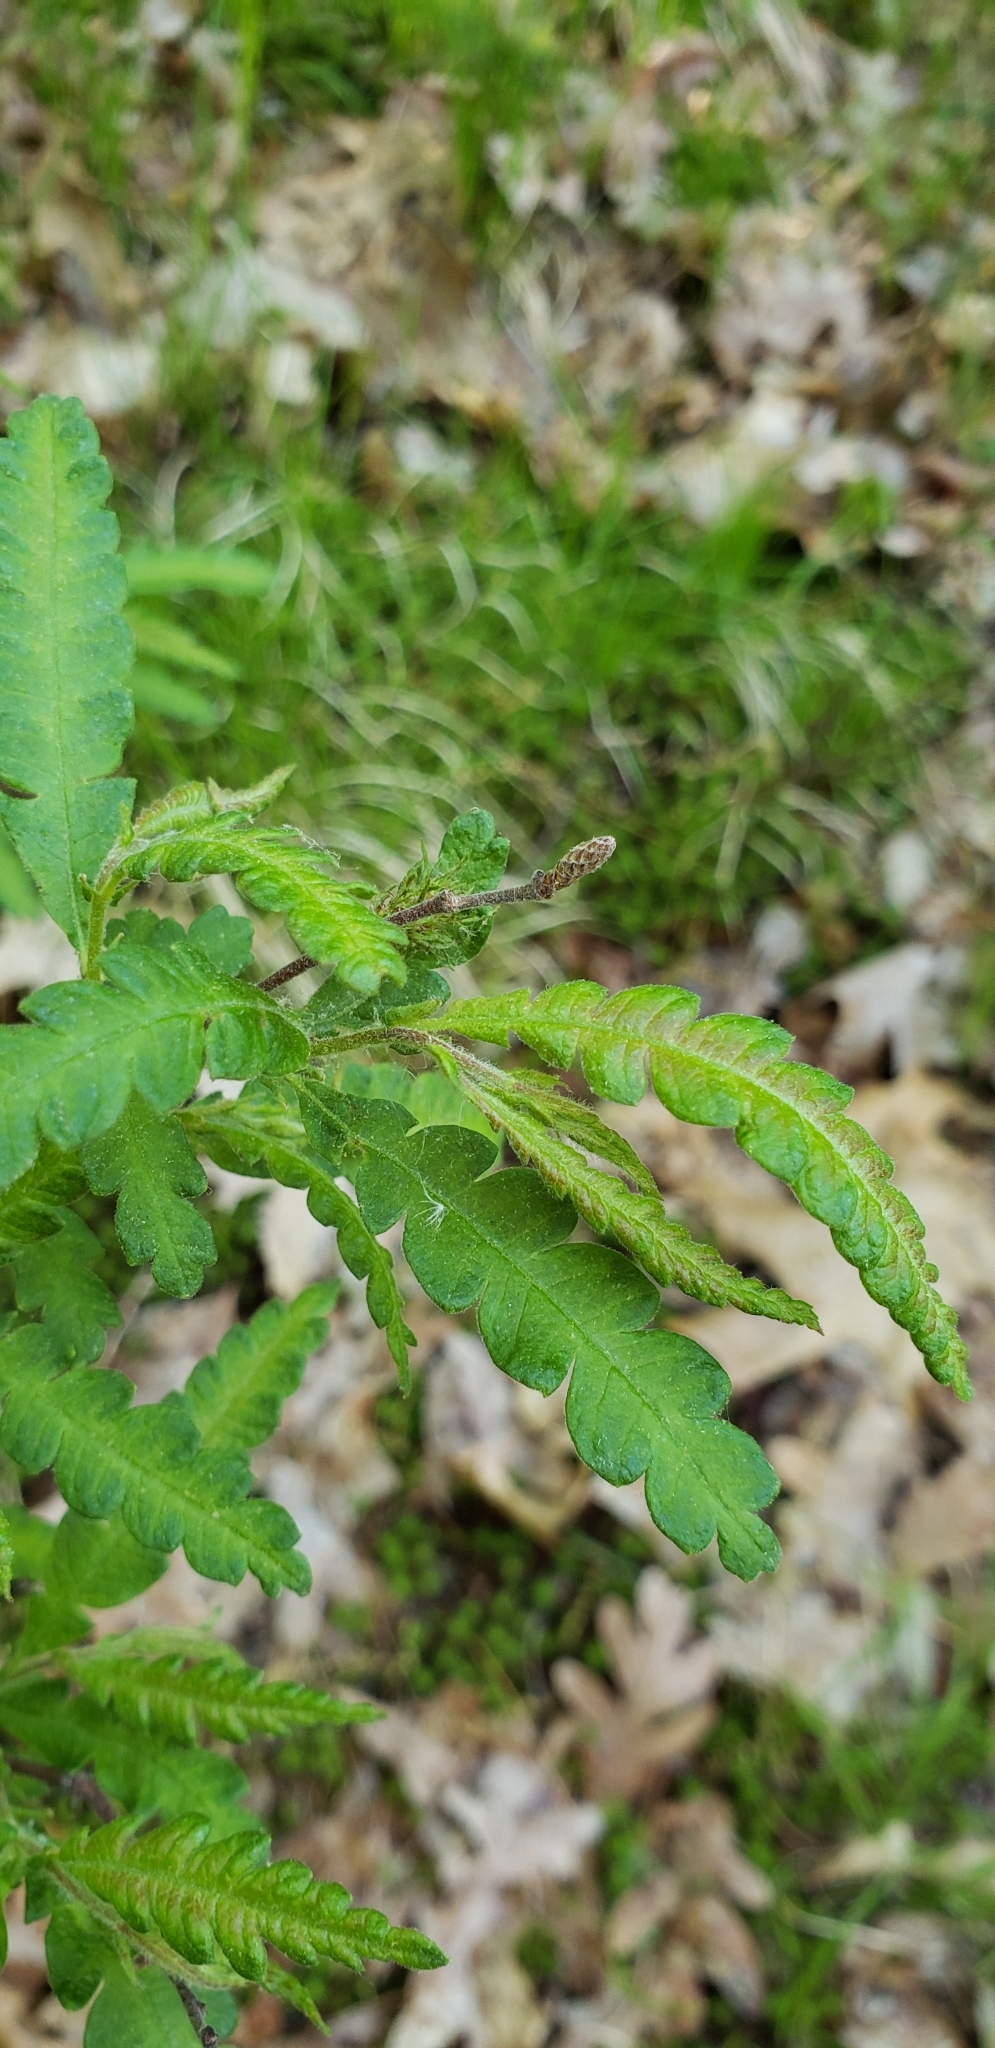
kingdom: Plantae
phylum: Tracheophyta
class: Magnoliopsida
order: Fagales
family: Myricaceae
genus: Comptonia
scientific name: Comptonia peregrina
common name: Sweet-fern
